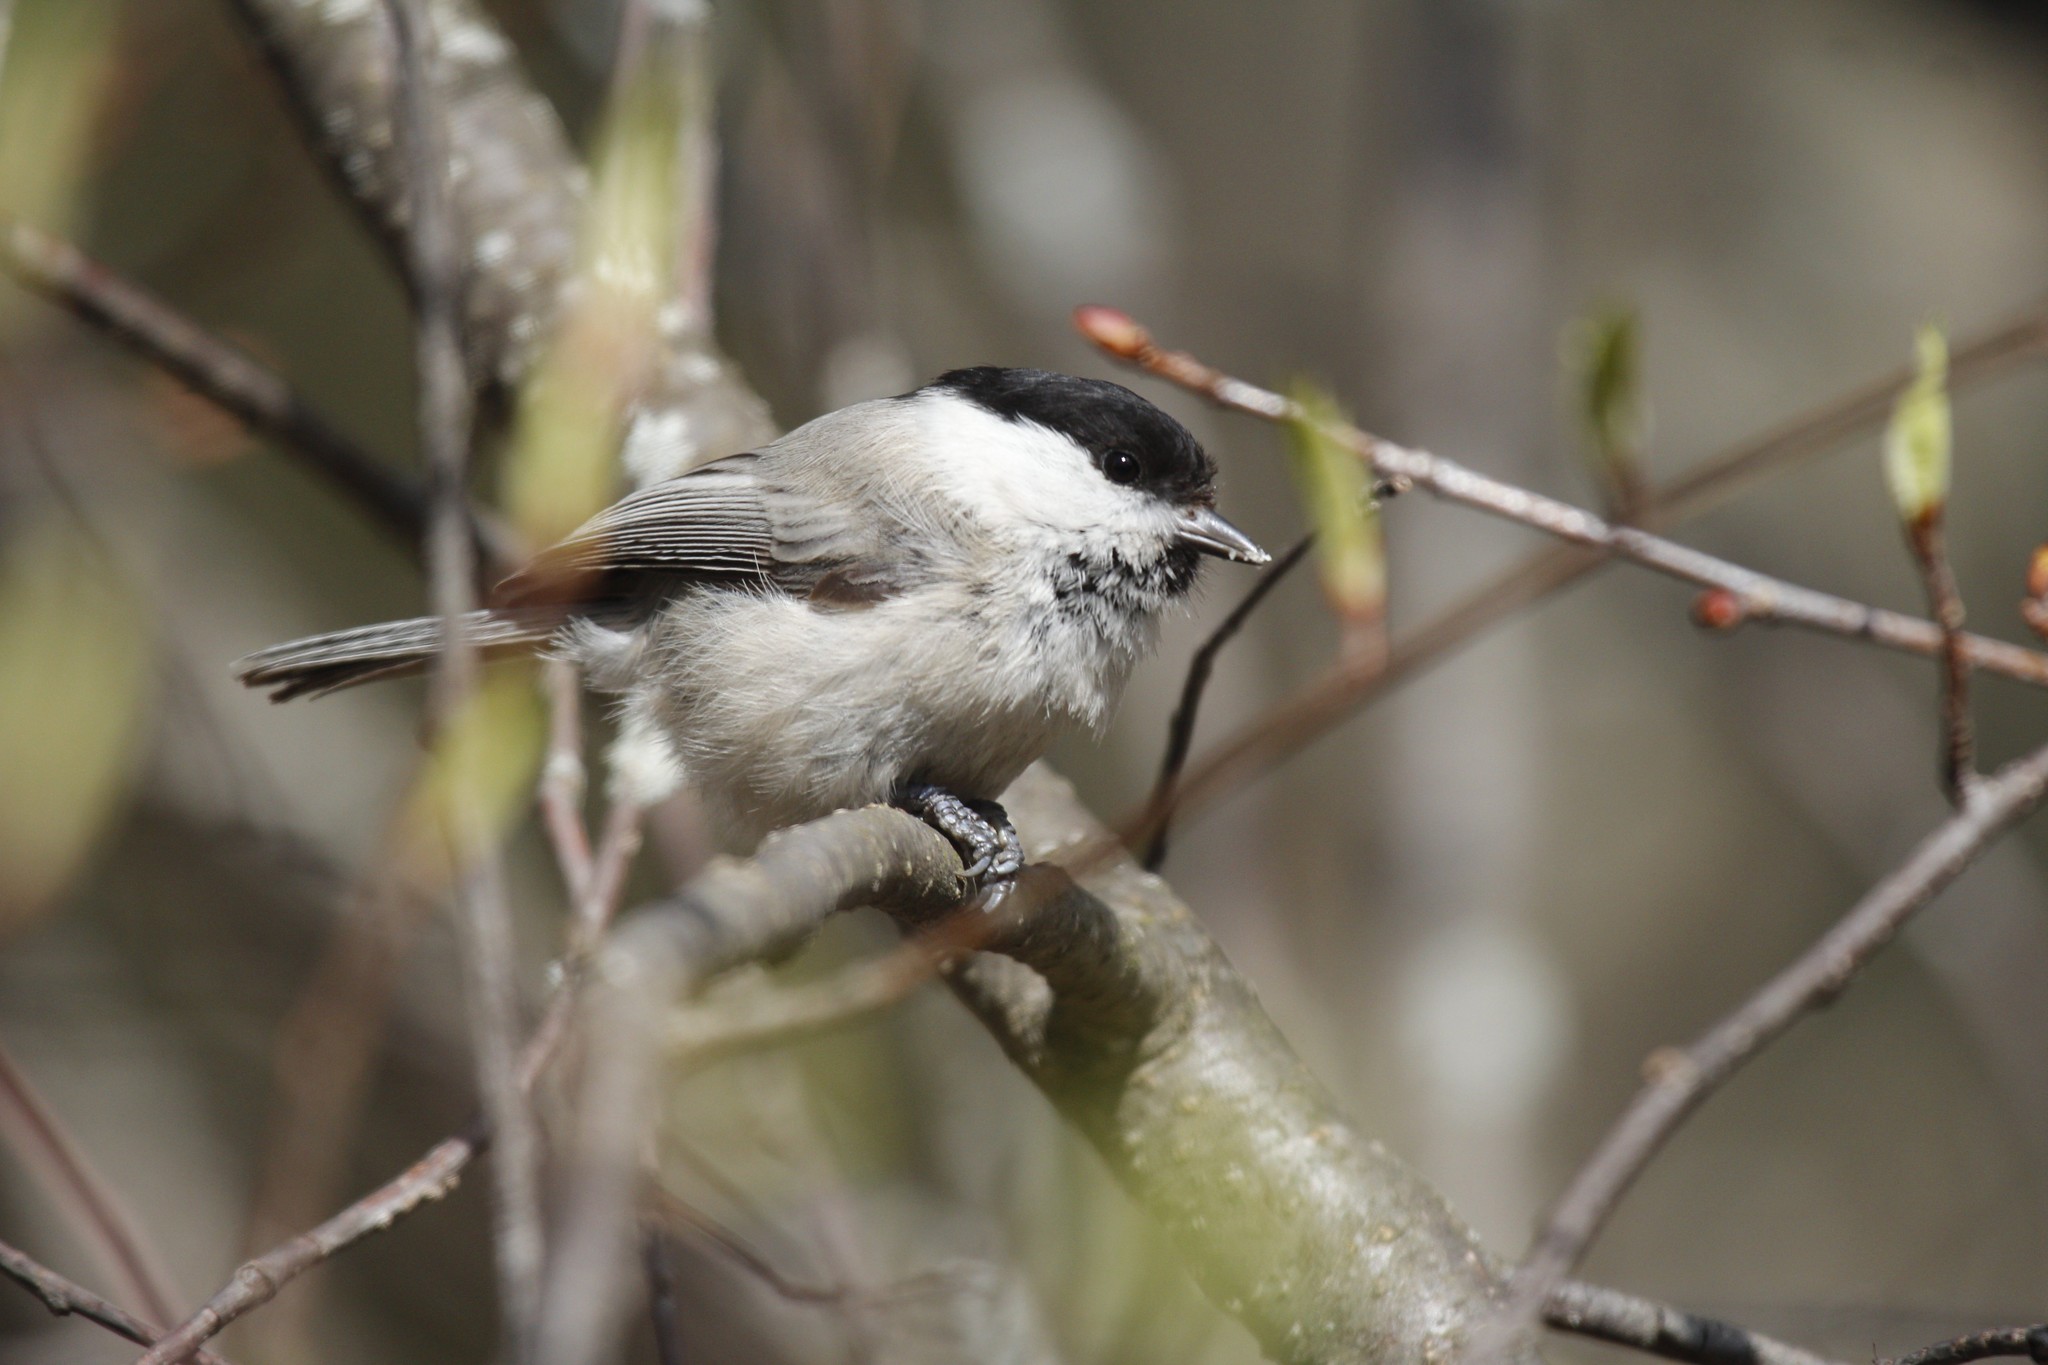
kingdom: Animalia
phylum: Chordata
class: Aves
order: Passeriformes
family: Paridae
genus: Poecile
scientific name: Poecile montanus
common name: Willow tit
